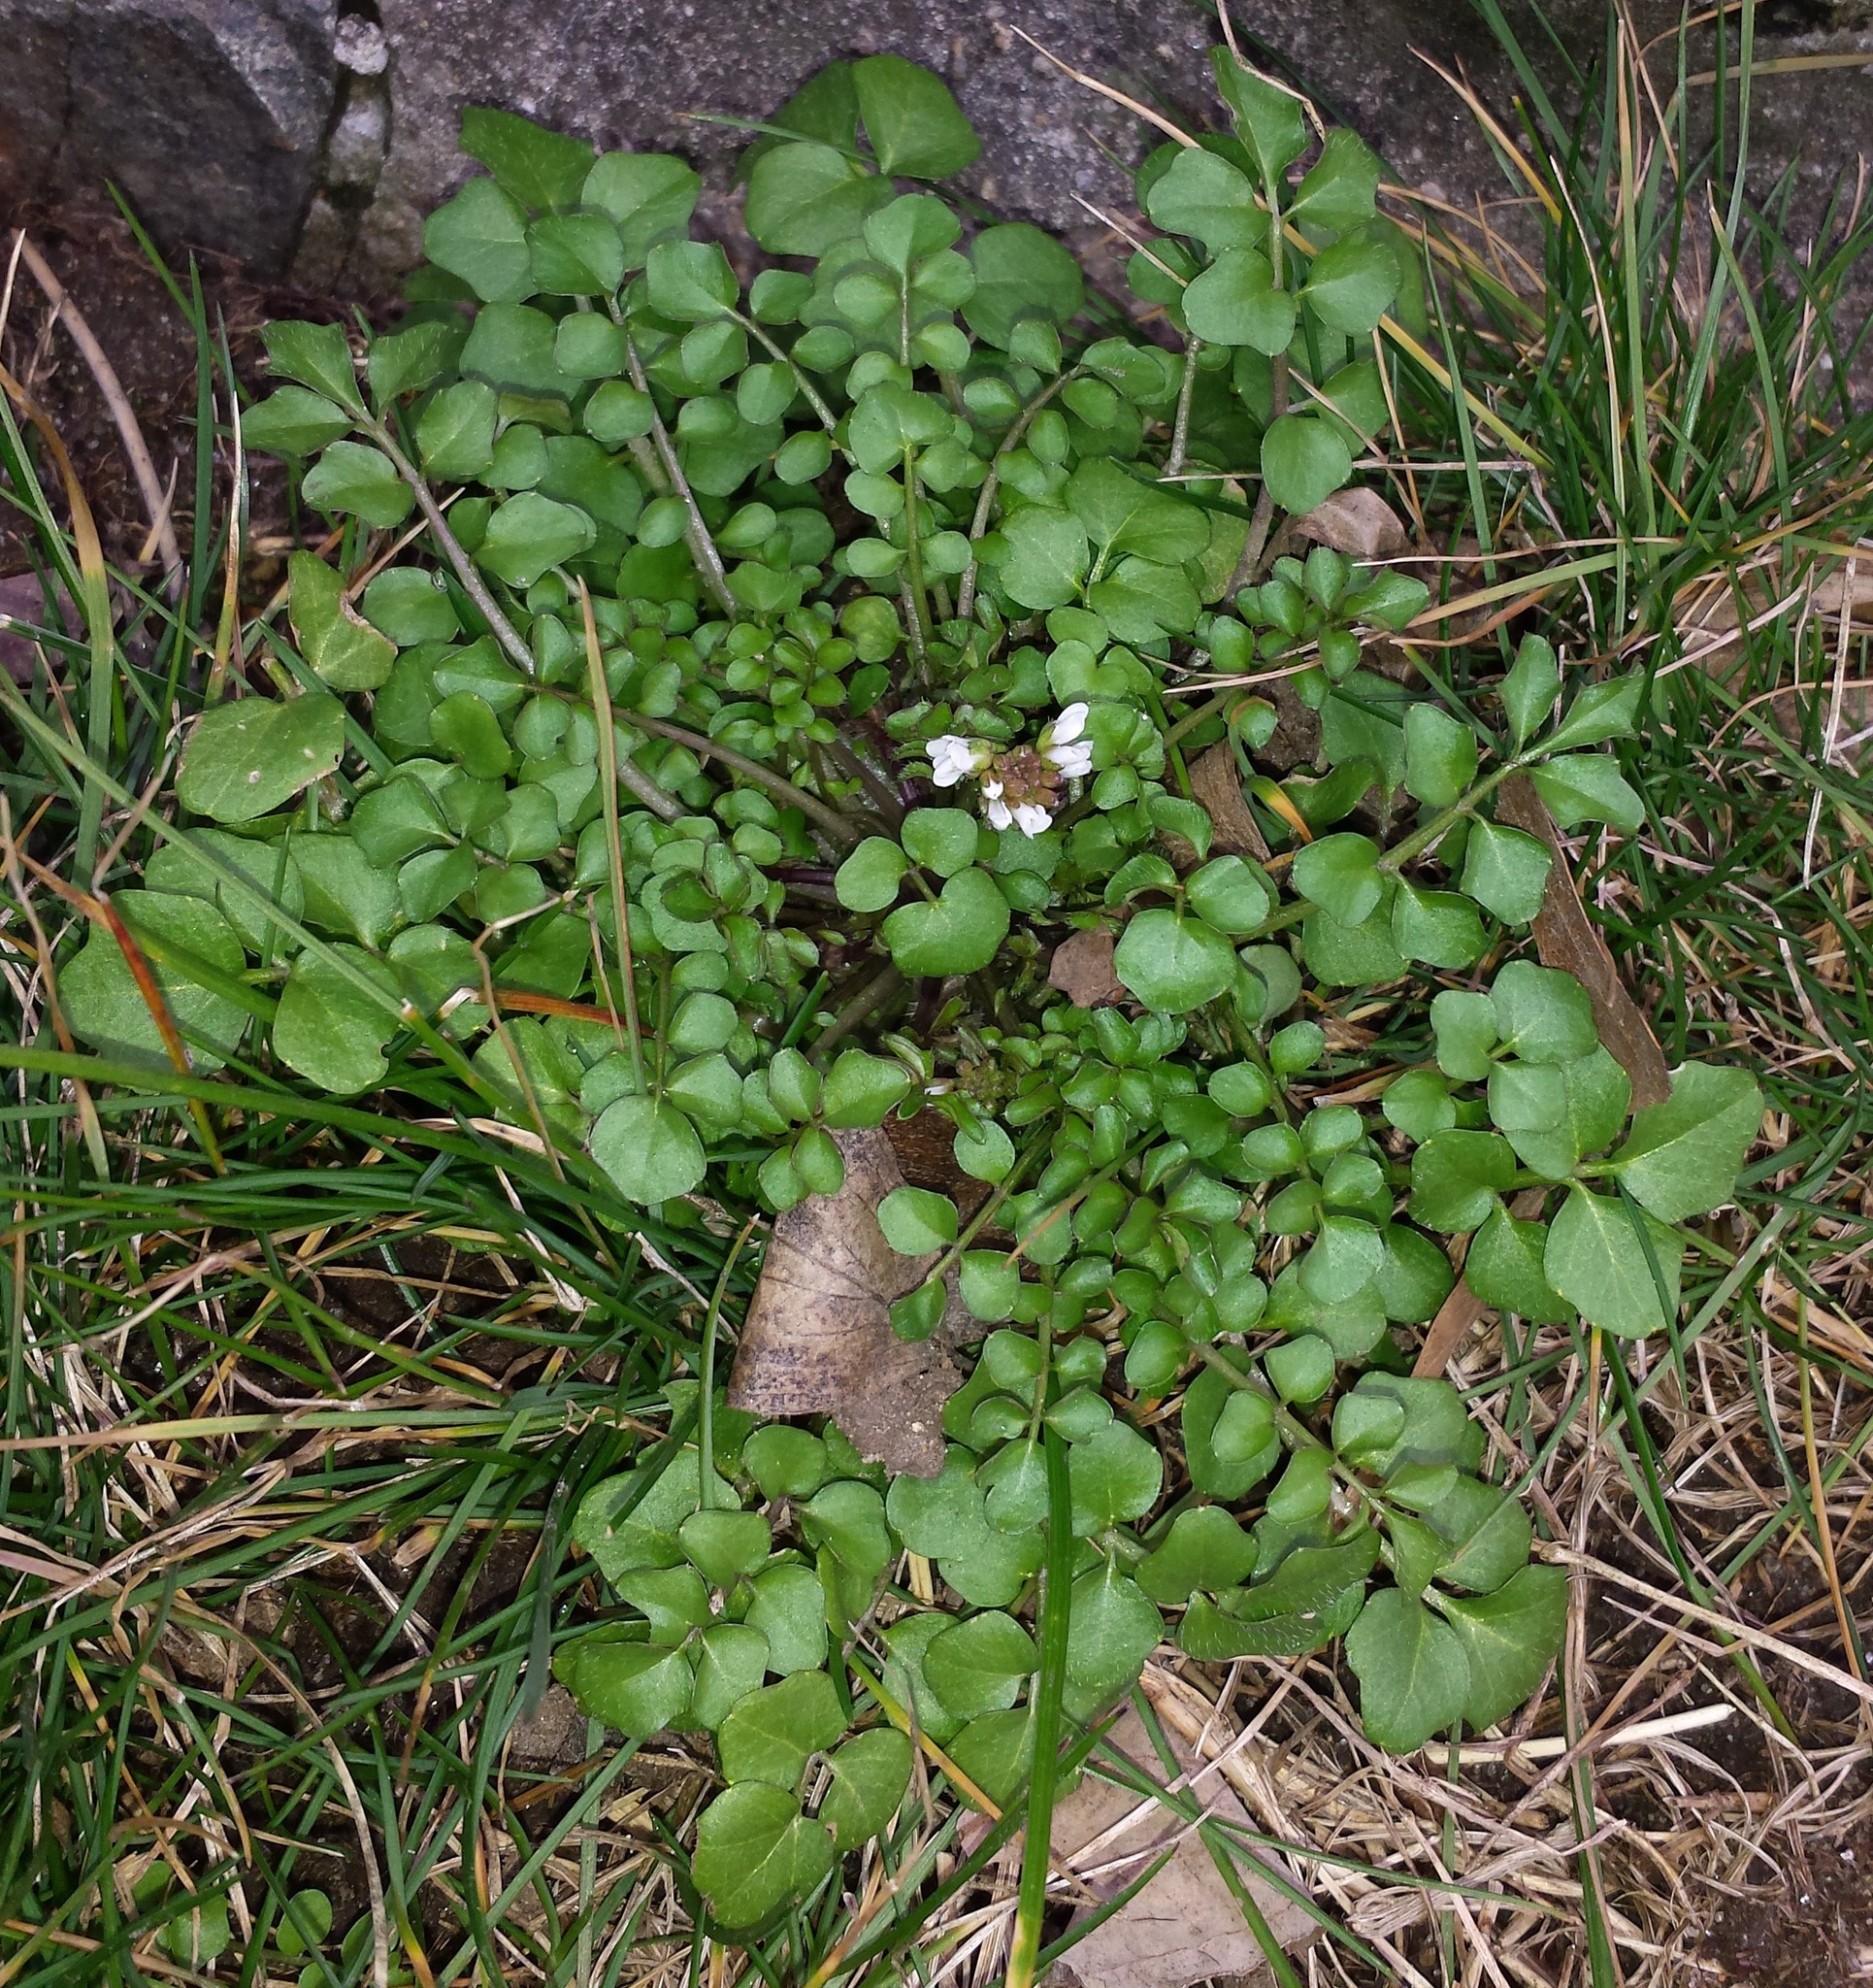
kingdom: Plantae
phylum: Tracheophyta
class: Magnoliopsida
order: Brassicales
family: Brassicaceae
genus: Cardamine
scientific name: Cardamine hirsuta
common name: Hairy bittercress
